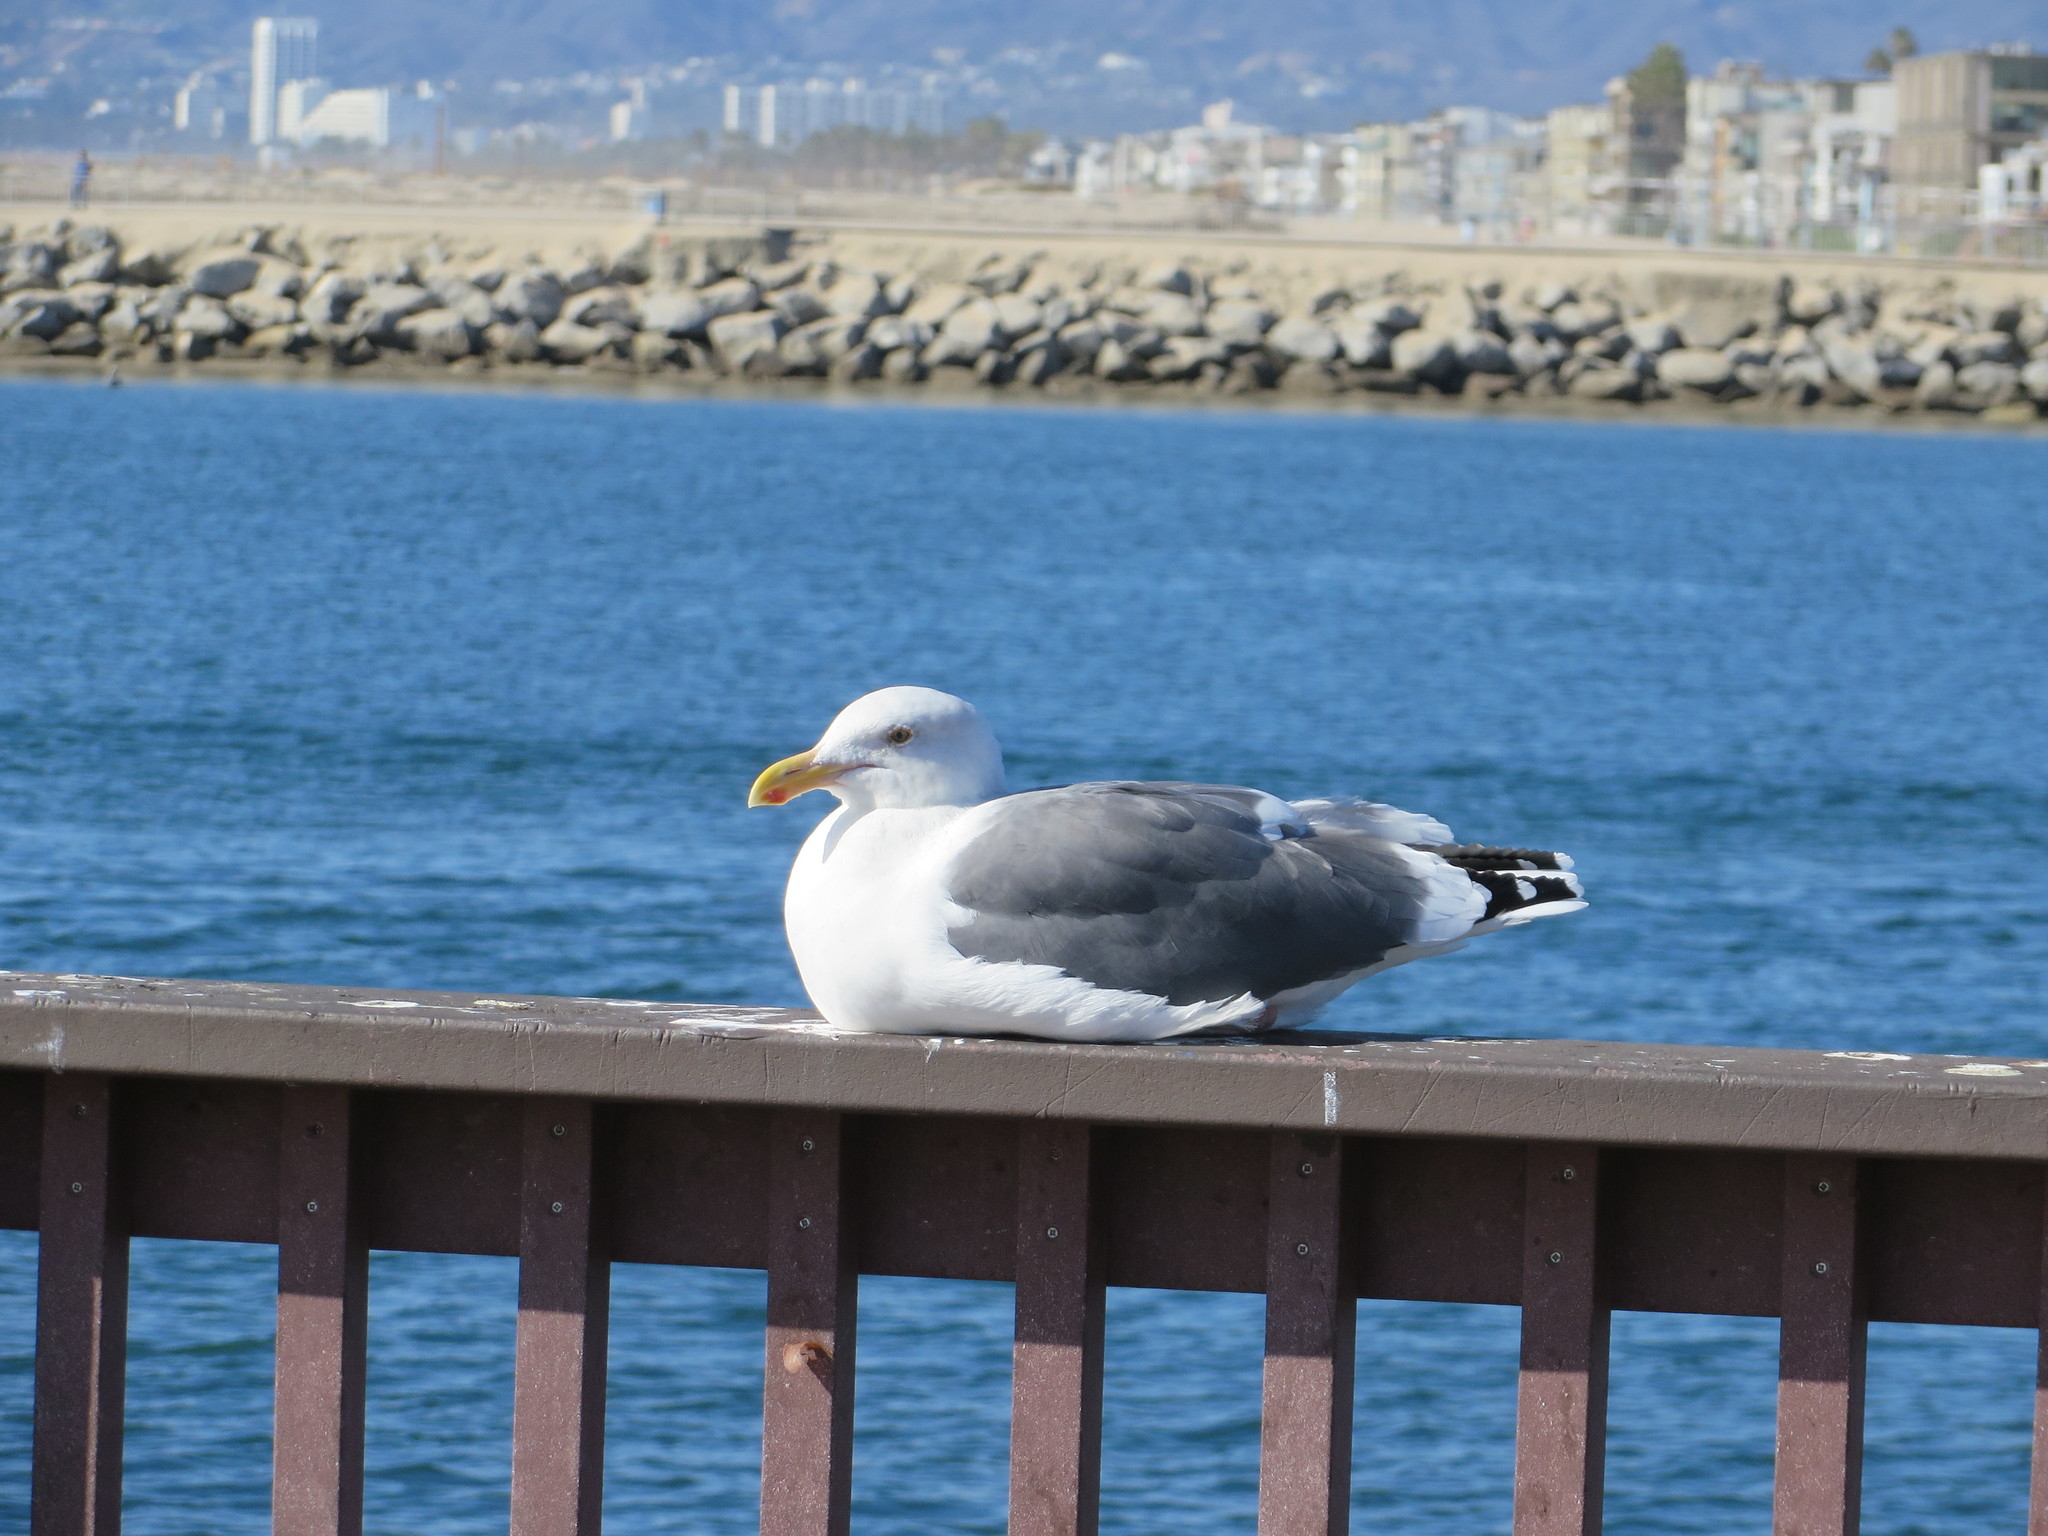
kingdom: Animalia
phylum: Chordata
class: Aves
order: Charadriiformes
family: Laridae
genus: Larus
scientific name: Larus occidentalis
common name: Western gull
